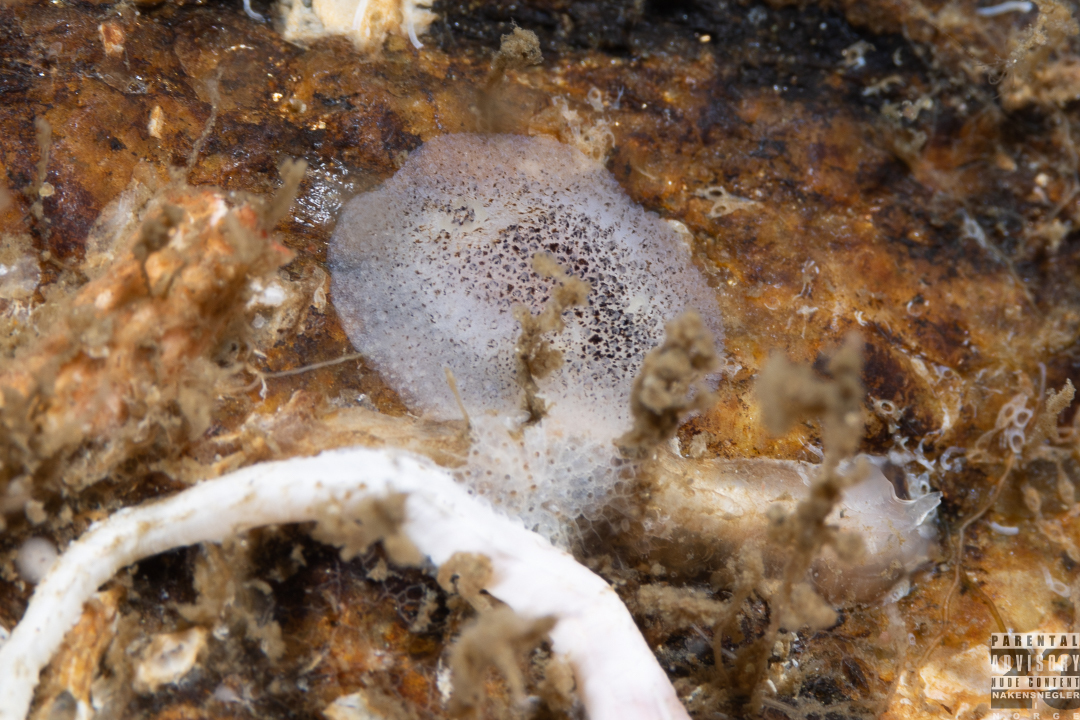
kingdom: Animalia
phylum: Mollusca
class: Gastropoda
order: Nudibranchia
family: Onchidorididae
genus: Atalodoris
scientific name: Atalodoris pusilla
